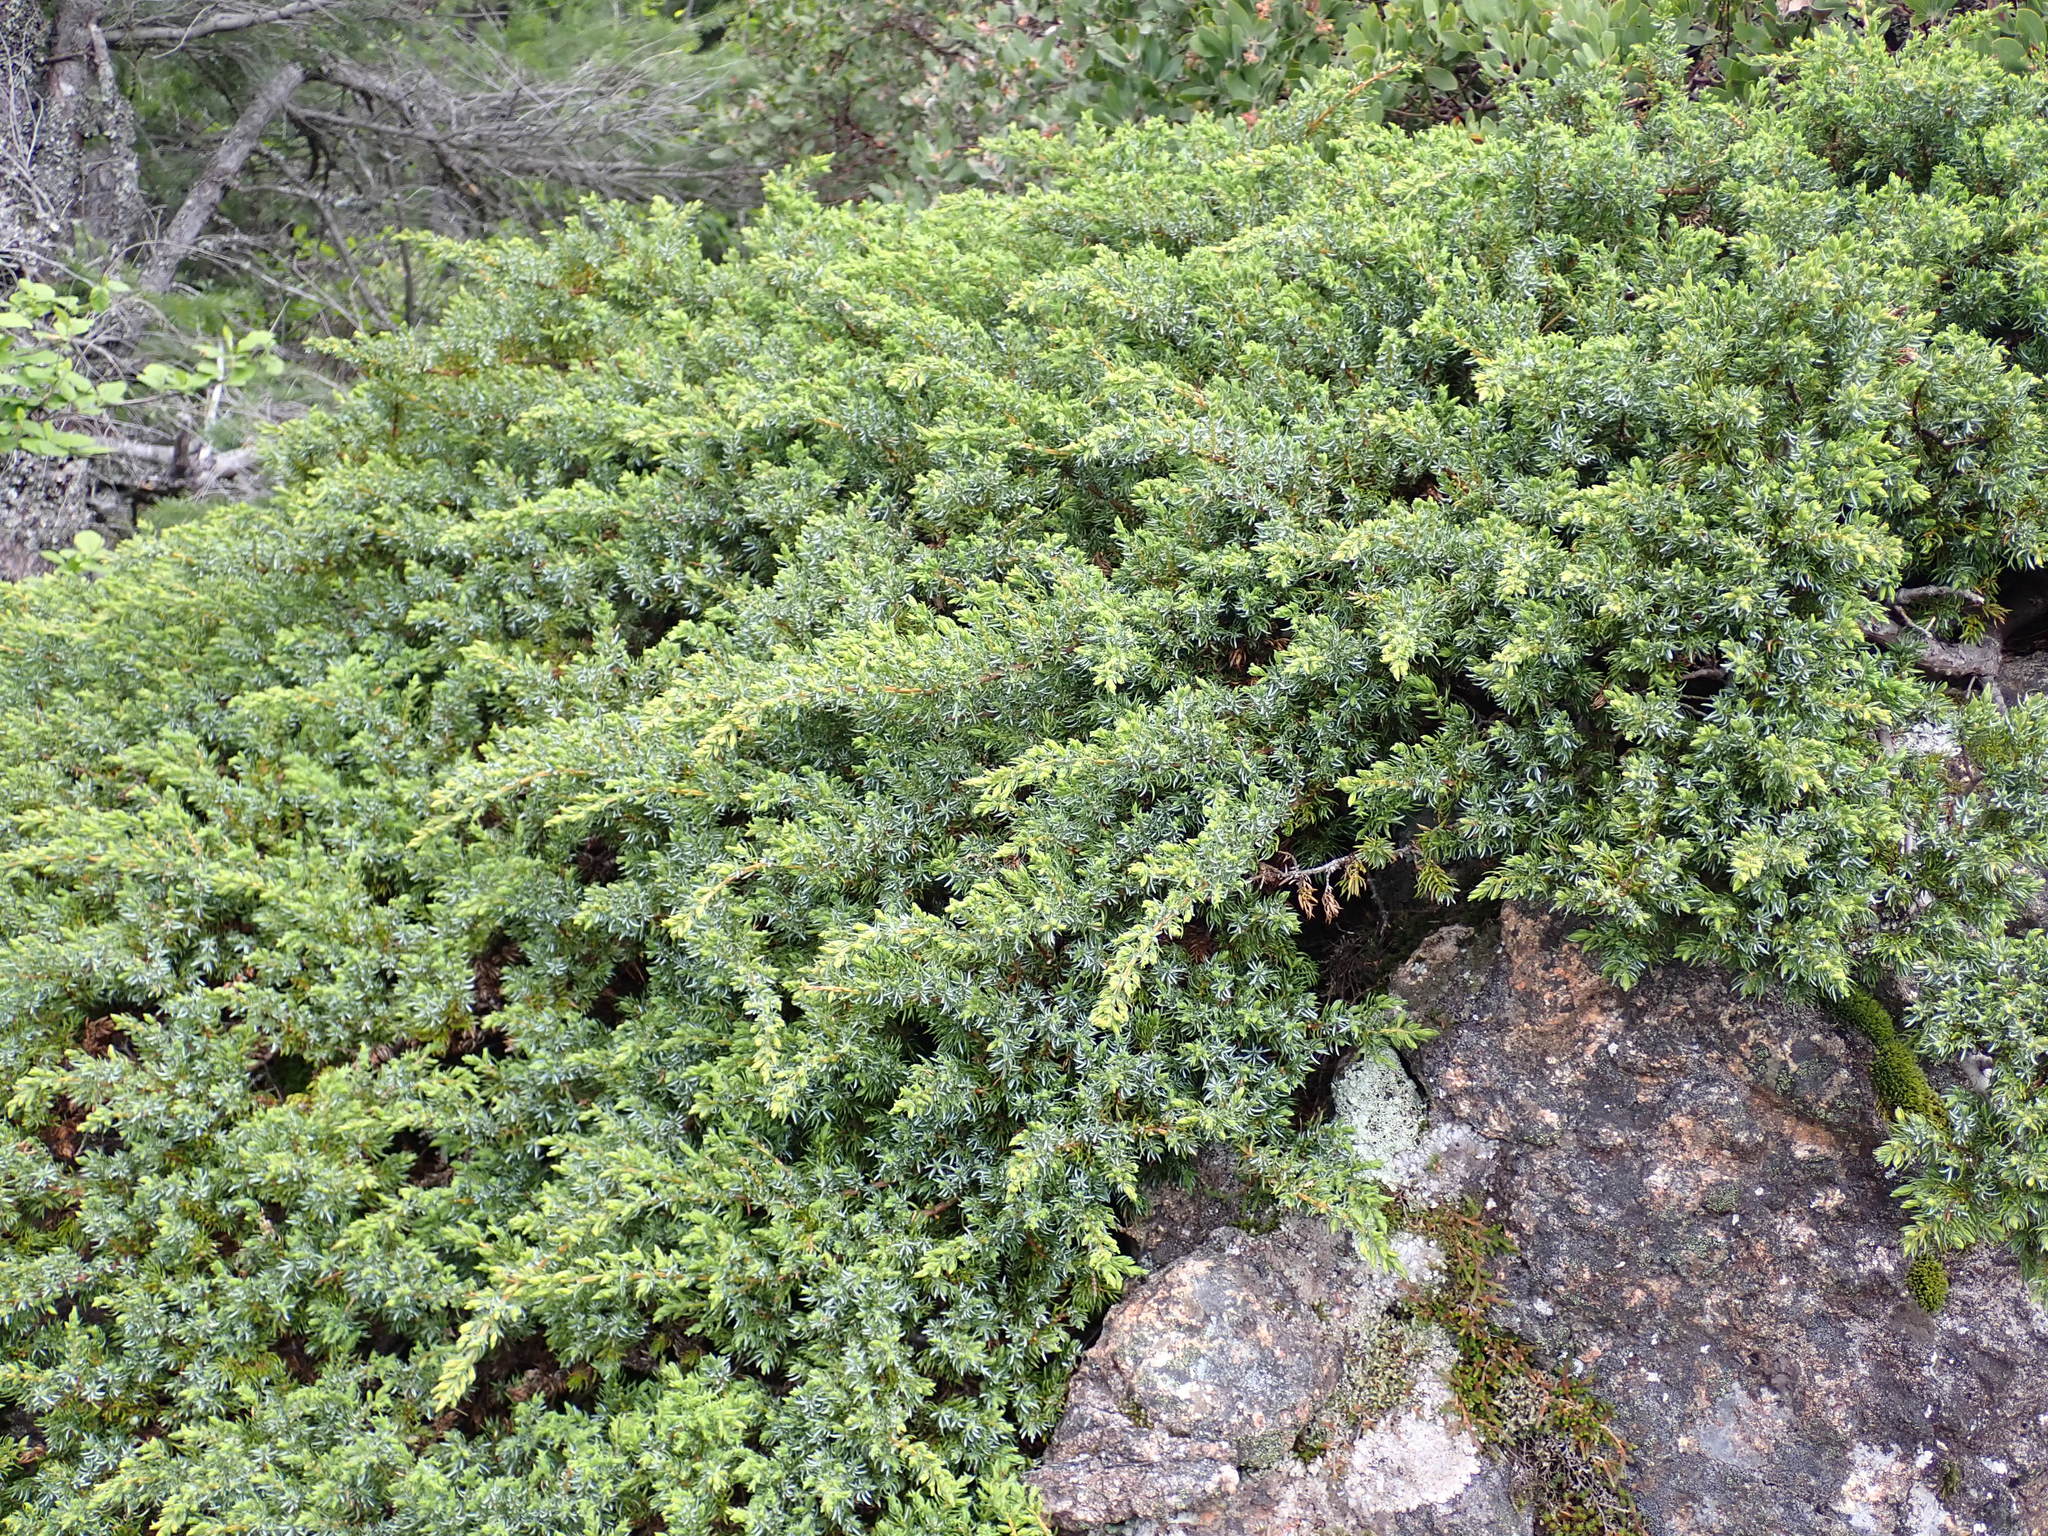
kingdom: Plantae
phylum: Tracheophyta
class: Pinopsida
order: Pinales
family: Cupressaceae
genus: Juniperus
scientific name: Juniperus communis
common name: Common juniper
